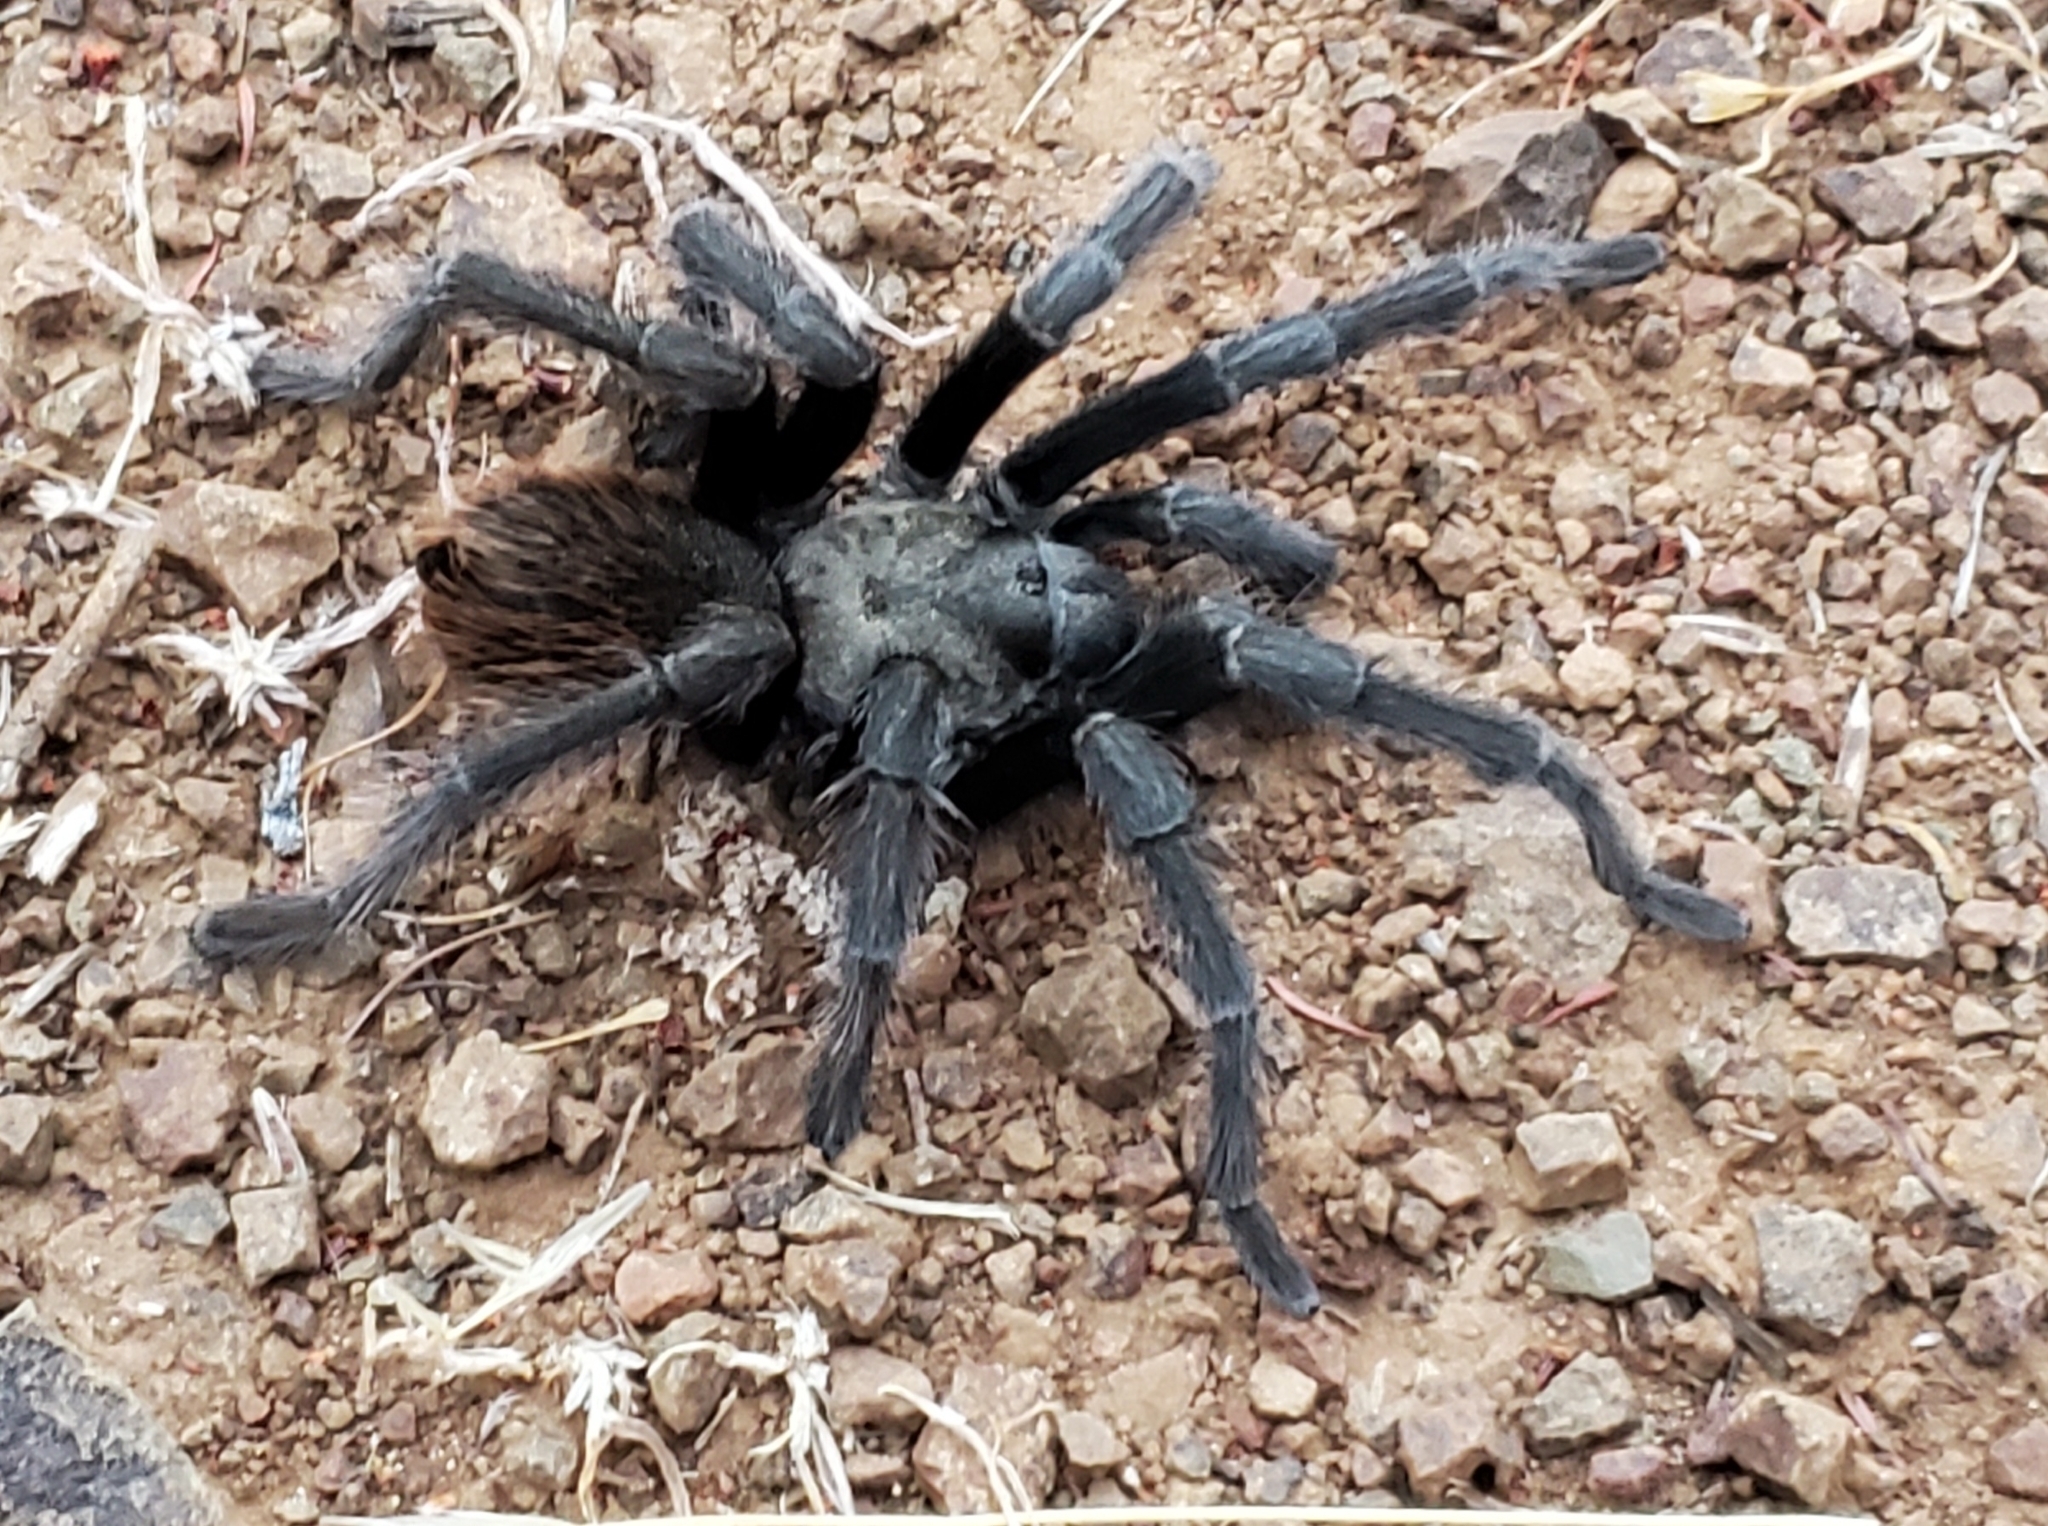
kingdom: Animalia
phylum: Arthropoda
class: Arachnida
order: Araneae
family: Theraphosidae
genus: Aphonopelma
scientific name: Aphonopelma iodius
